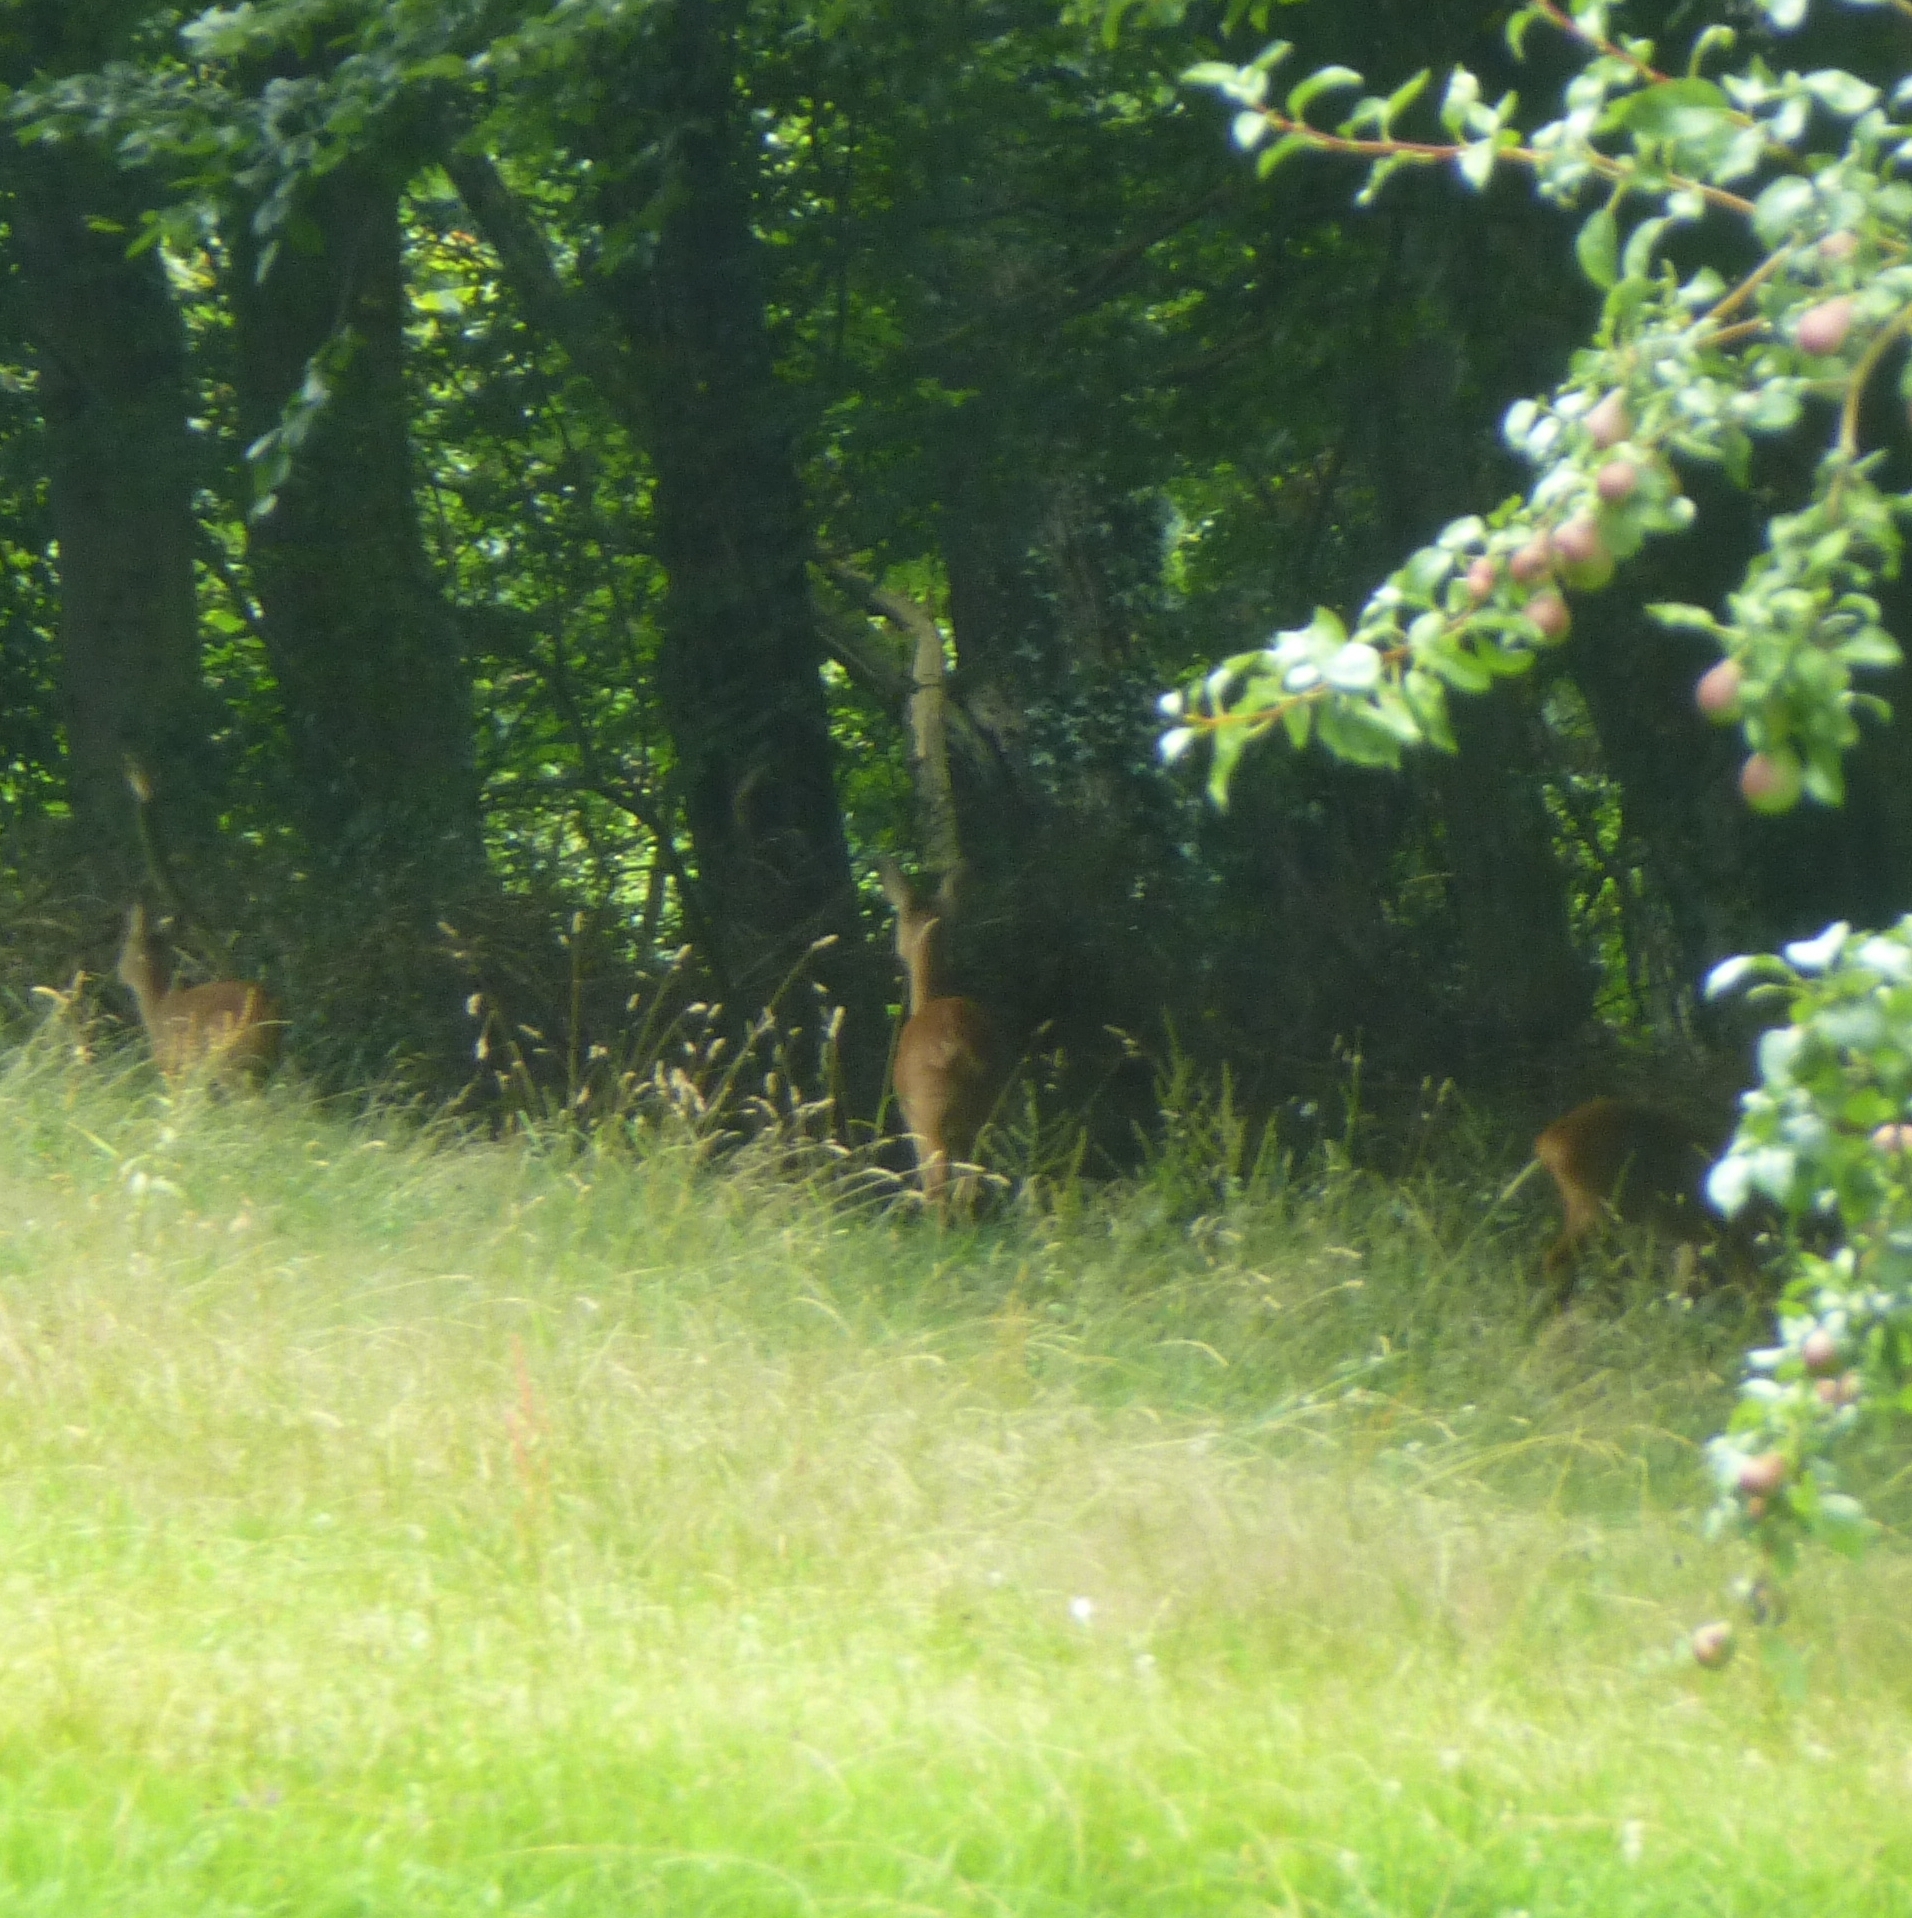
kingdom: Animalia
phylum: Chordata
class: Mammalia
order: Artiodactyla
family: Cervidae
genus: Capreolus
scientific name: Capreolus capreolus
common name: Western roe deer
